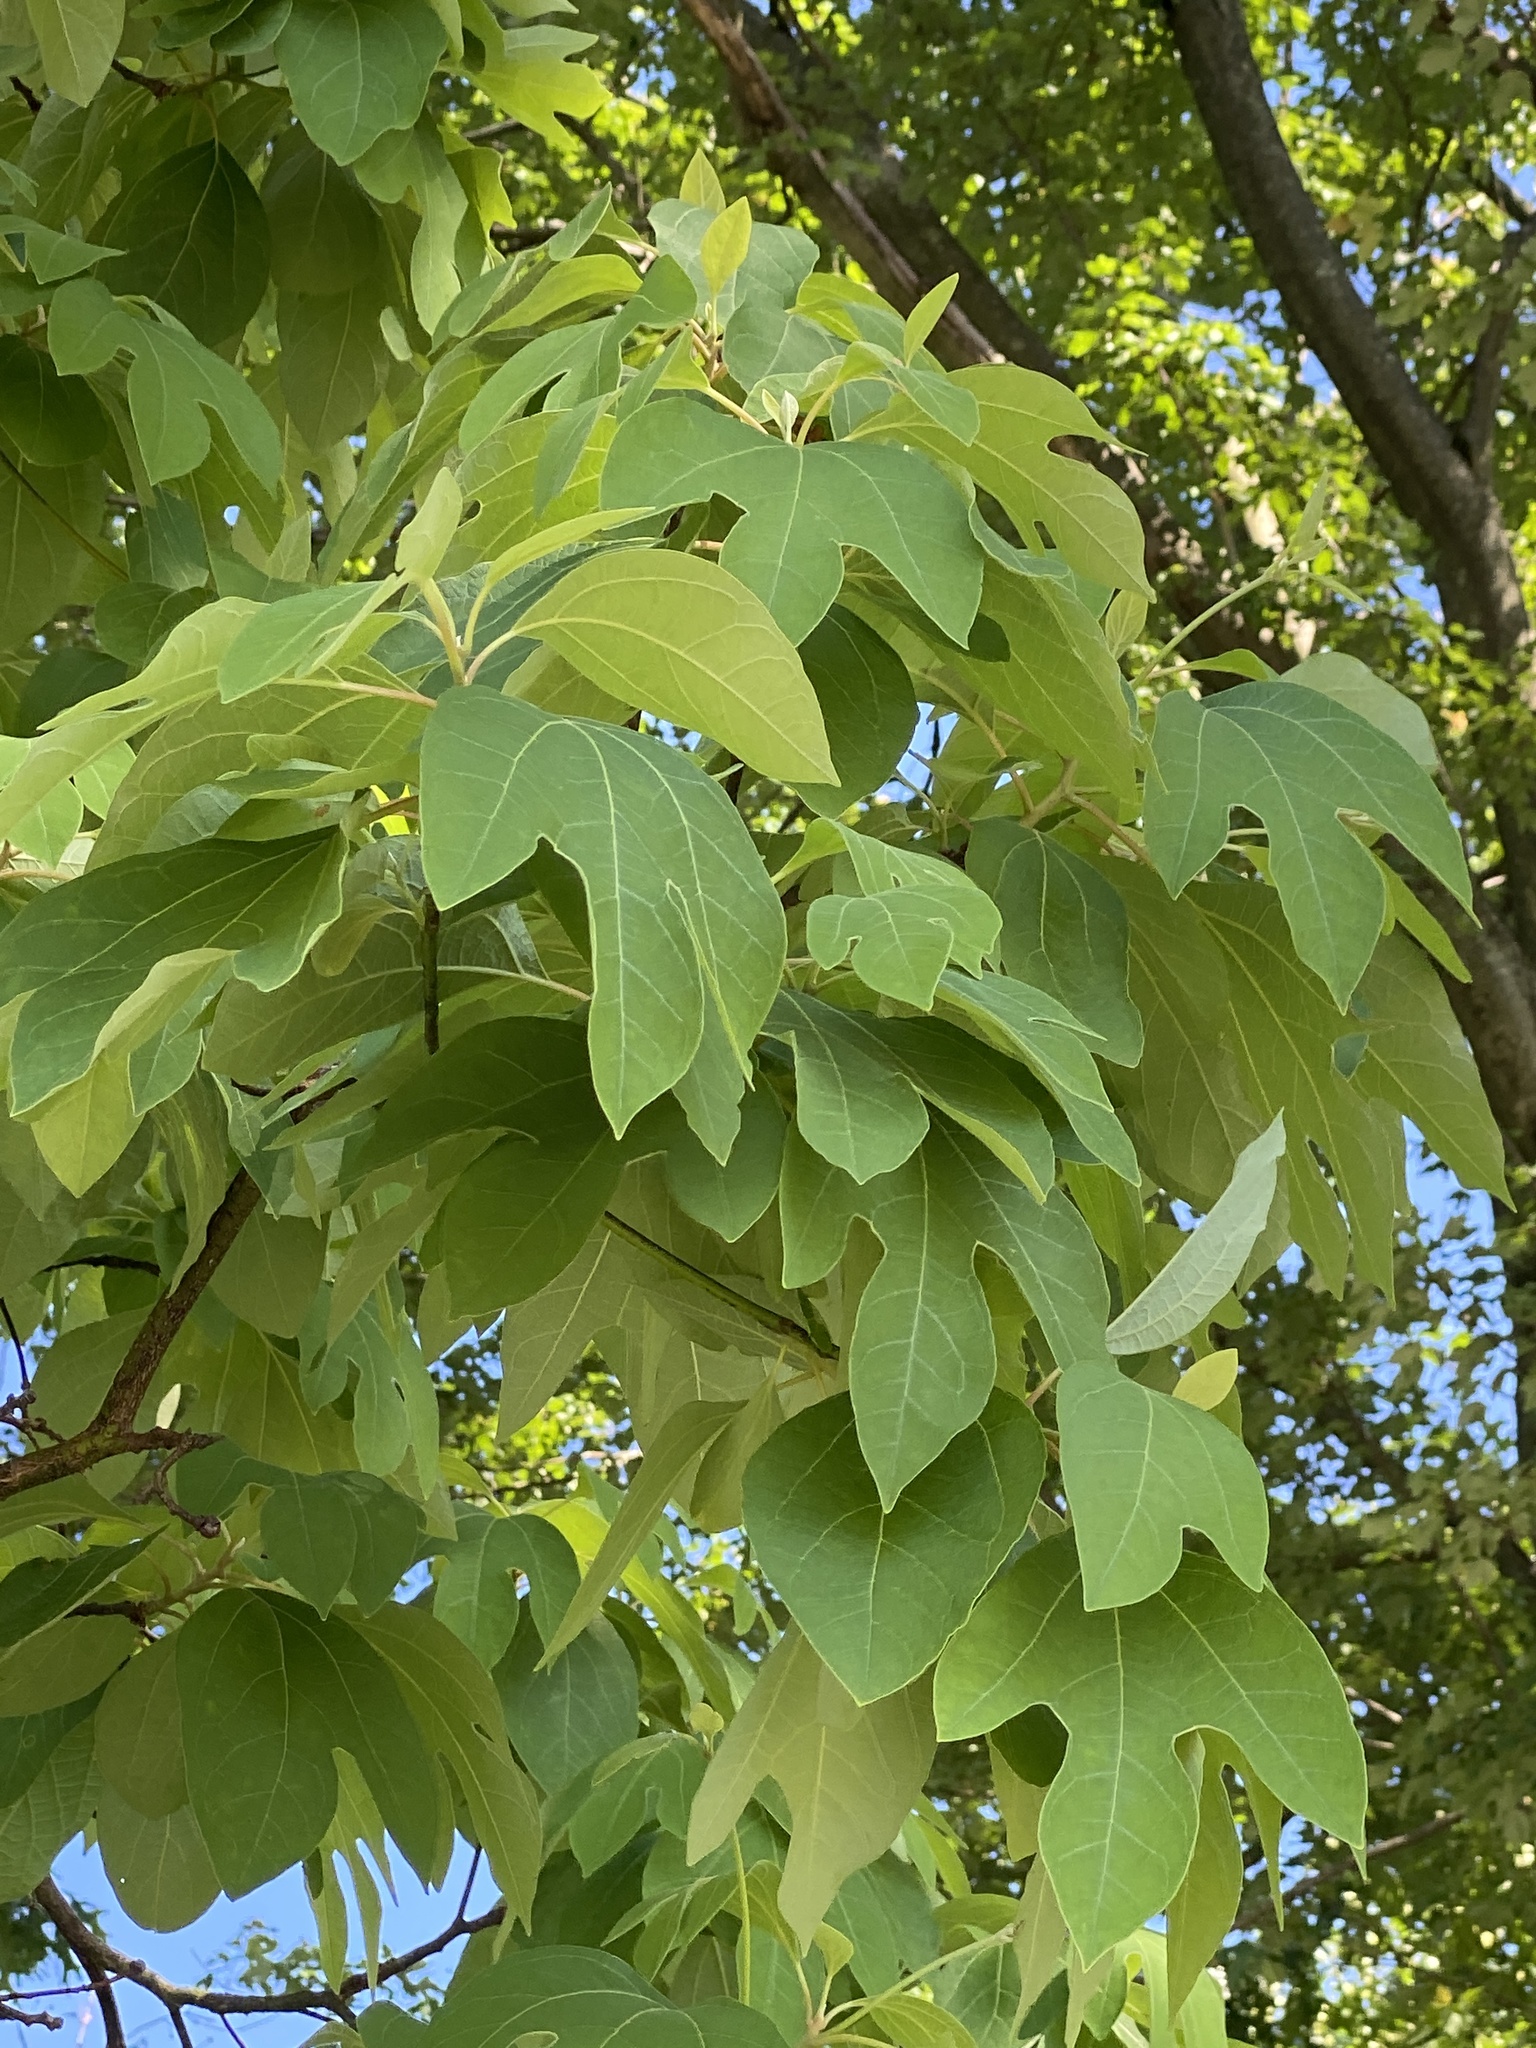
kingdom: Plantae
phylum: Tracheophyta
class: Magnoliopsida
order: Laurales
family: Lauraceae
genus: Sassafras
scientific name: Sassafras albidum
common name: Sassafras
